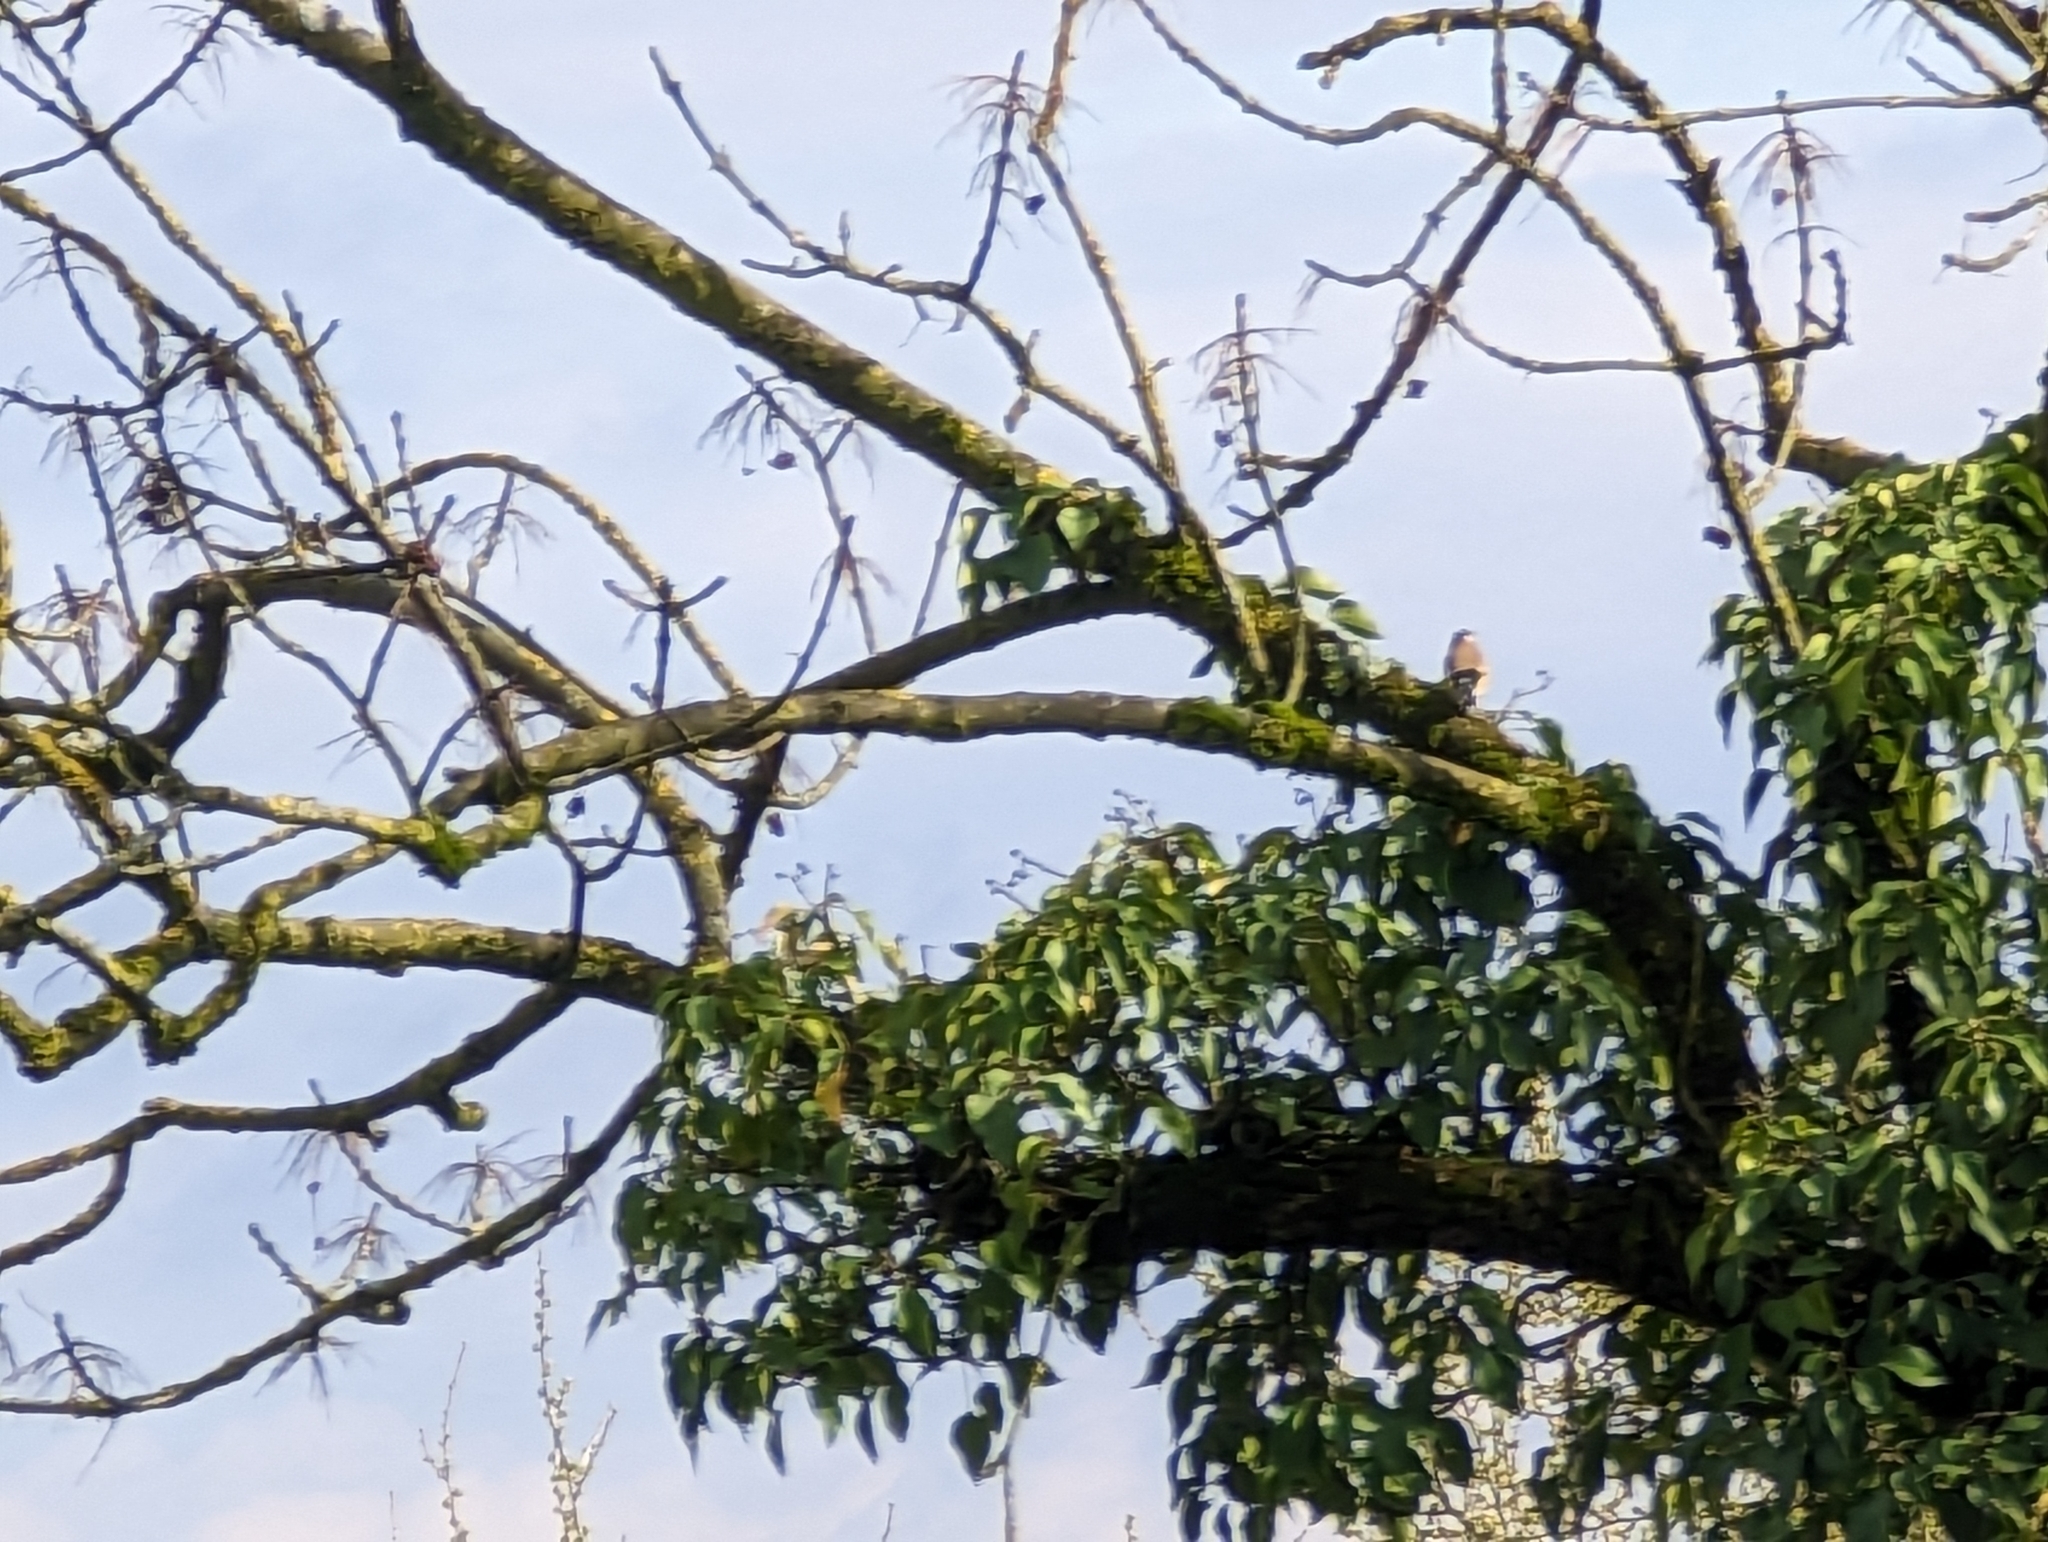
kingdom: Animalia
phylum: Chordata
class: Aves
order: Passeriformes
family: Fringillidae
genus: Carduelis
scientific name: Carduelis carduelis
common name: European goldfinch
